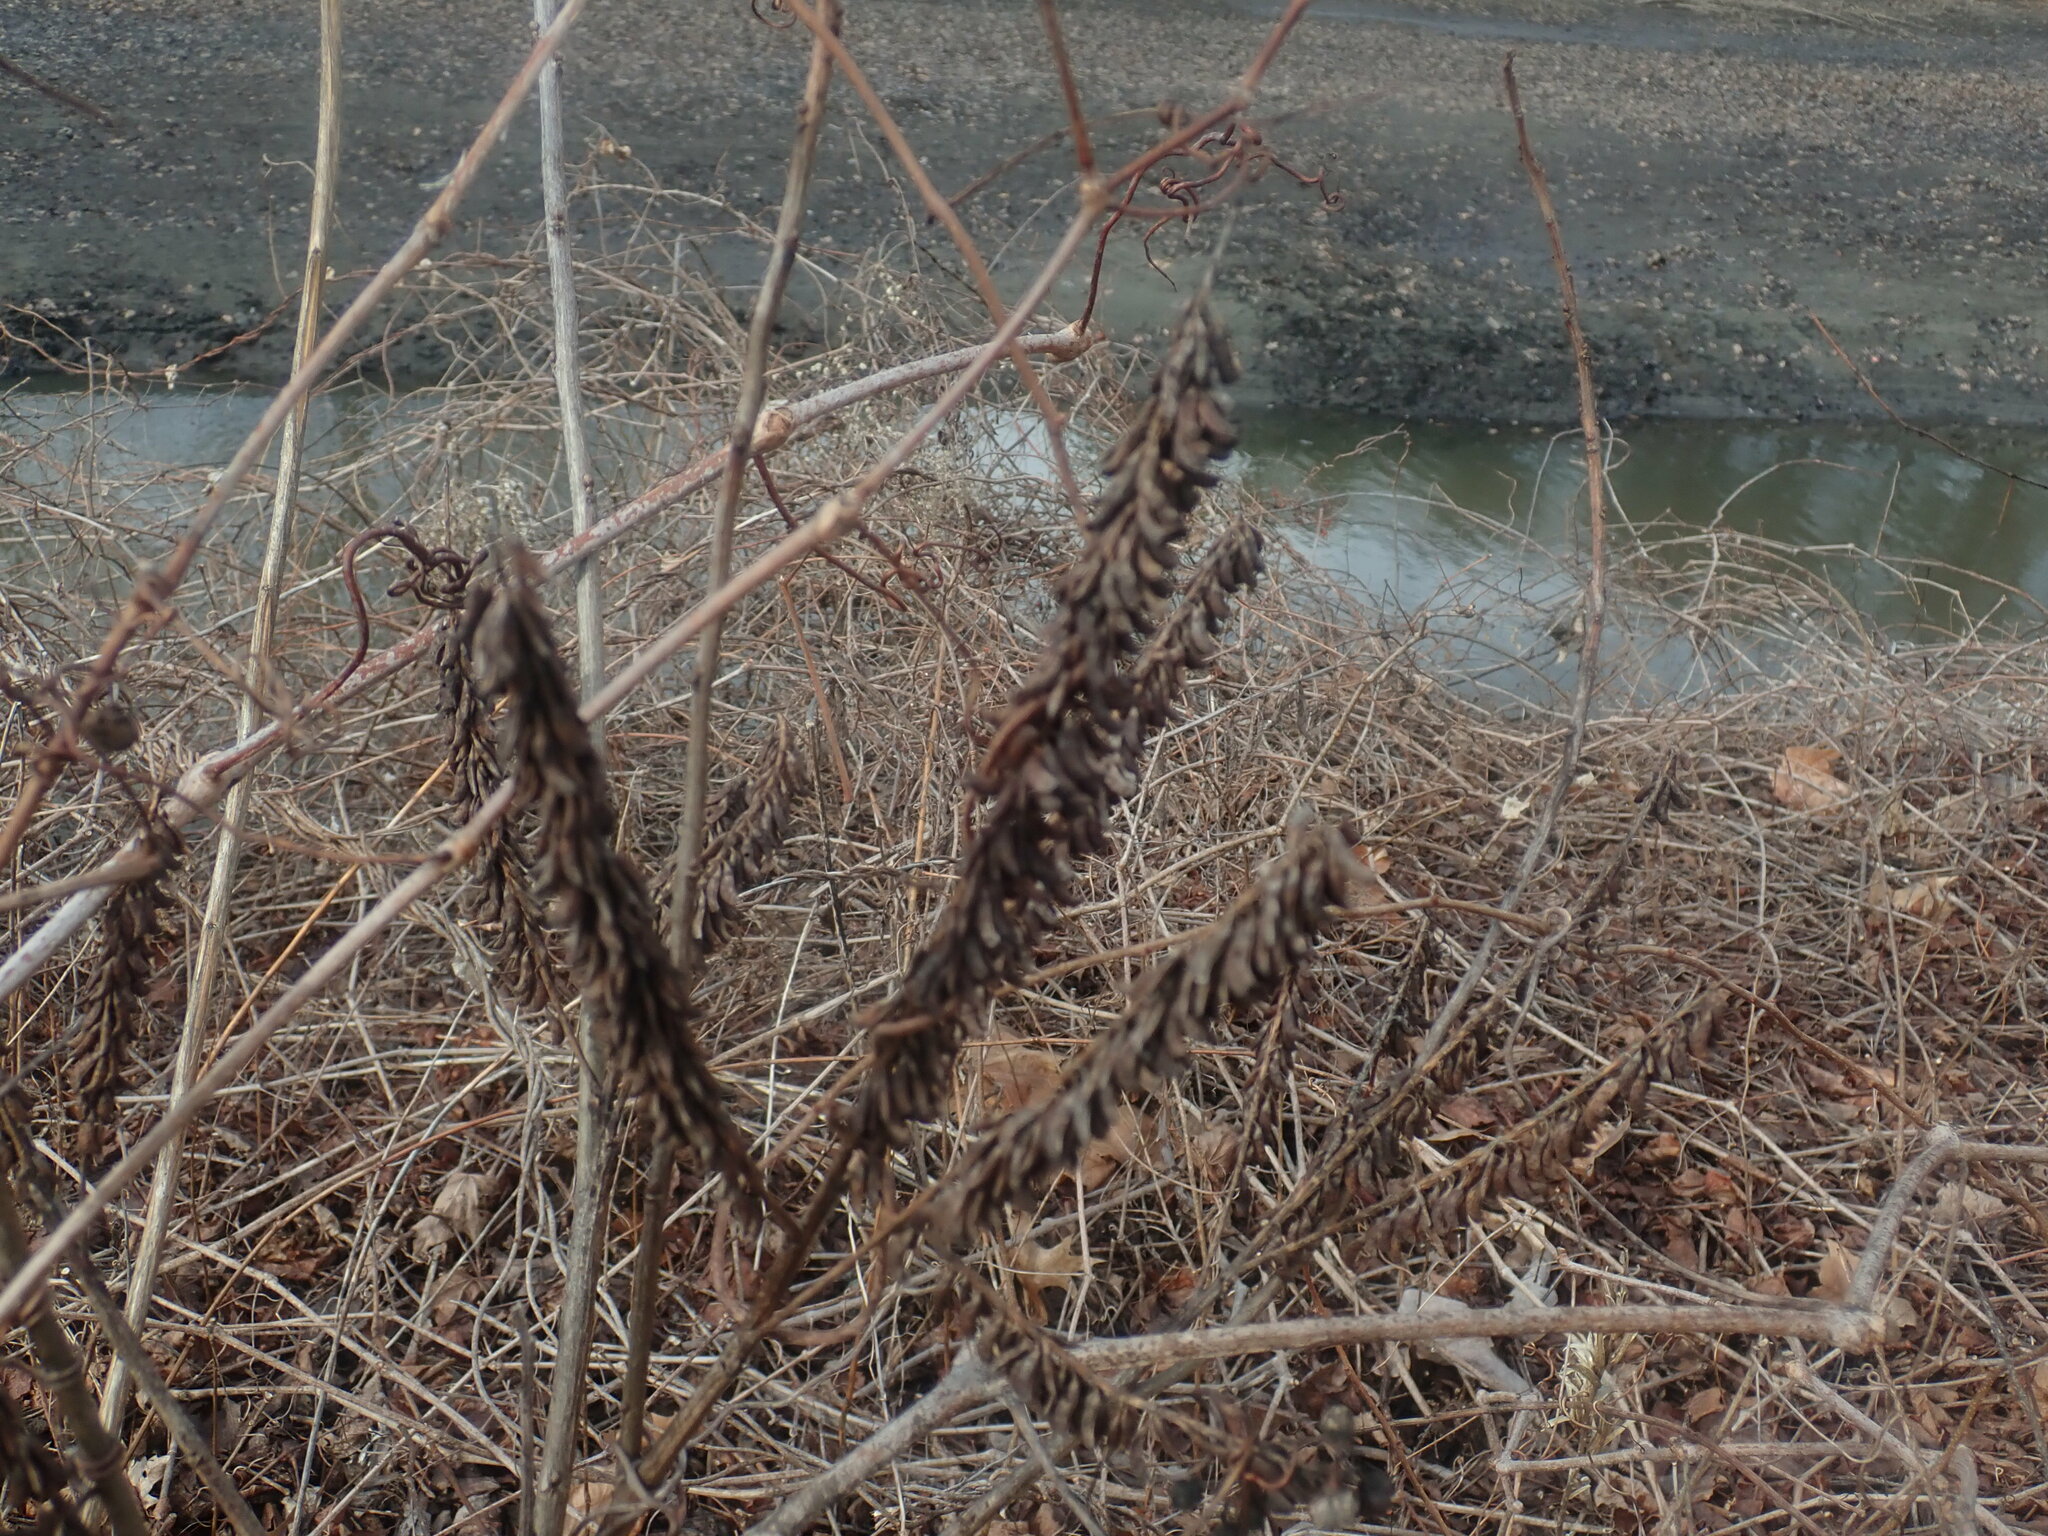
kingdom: Plantae
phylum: Tracheophyta
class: Magnoliopsida
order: Fabales
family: Fabaceae
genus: Amorpha
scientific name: Amorpha fruticosa
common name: False indigo
